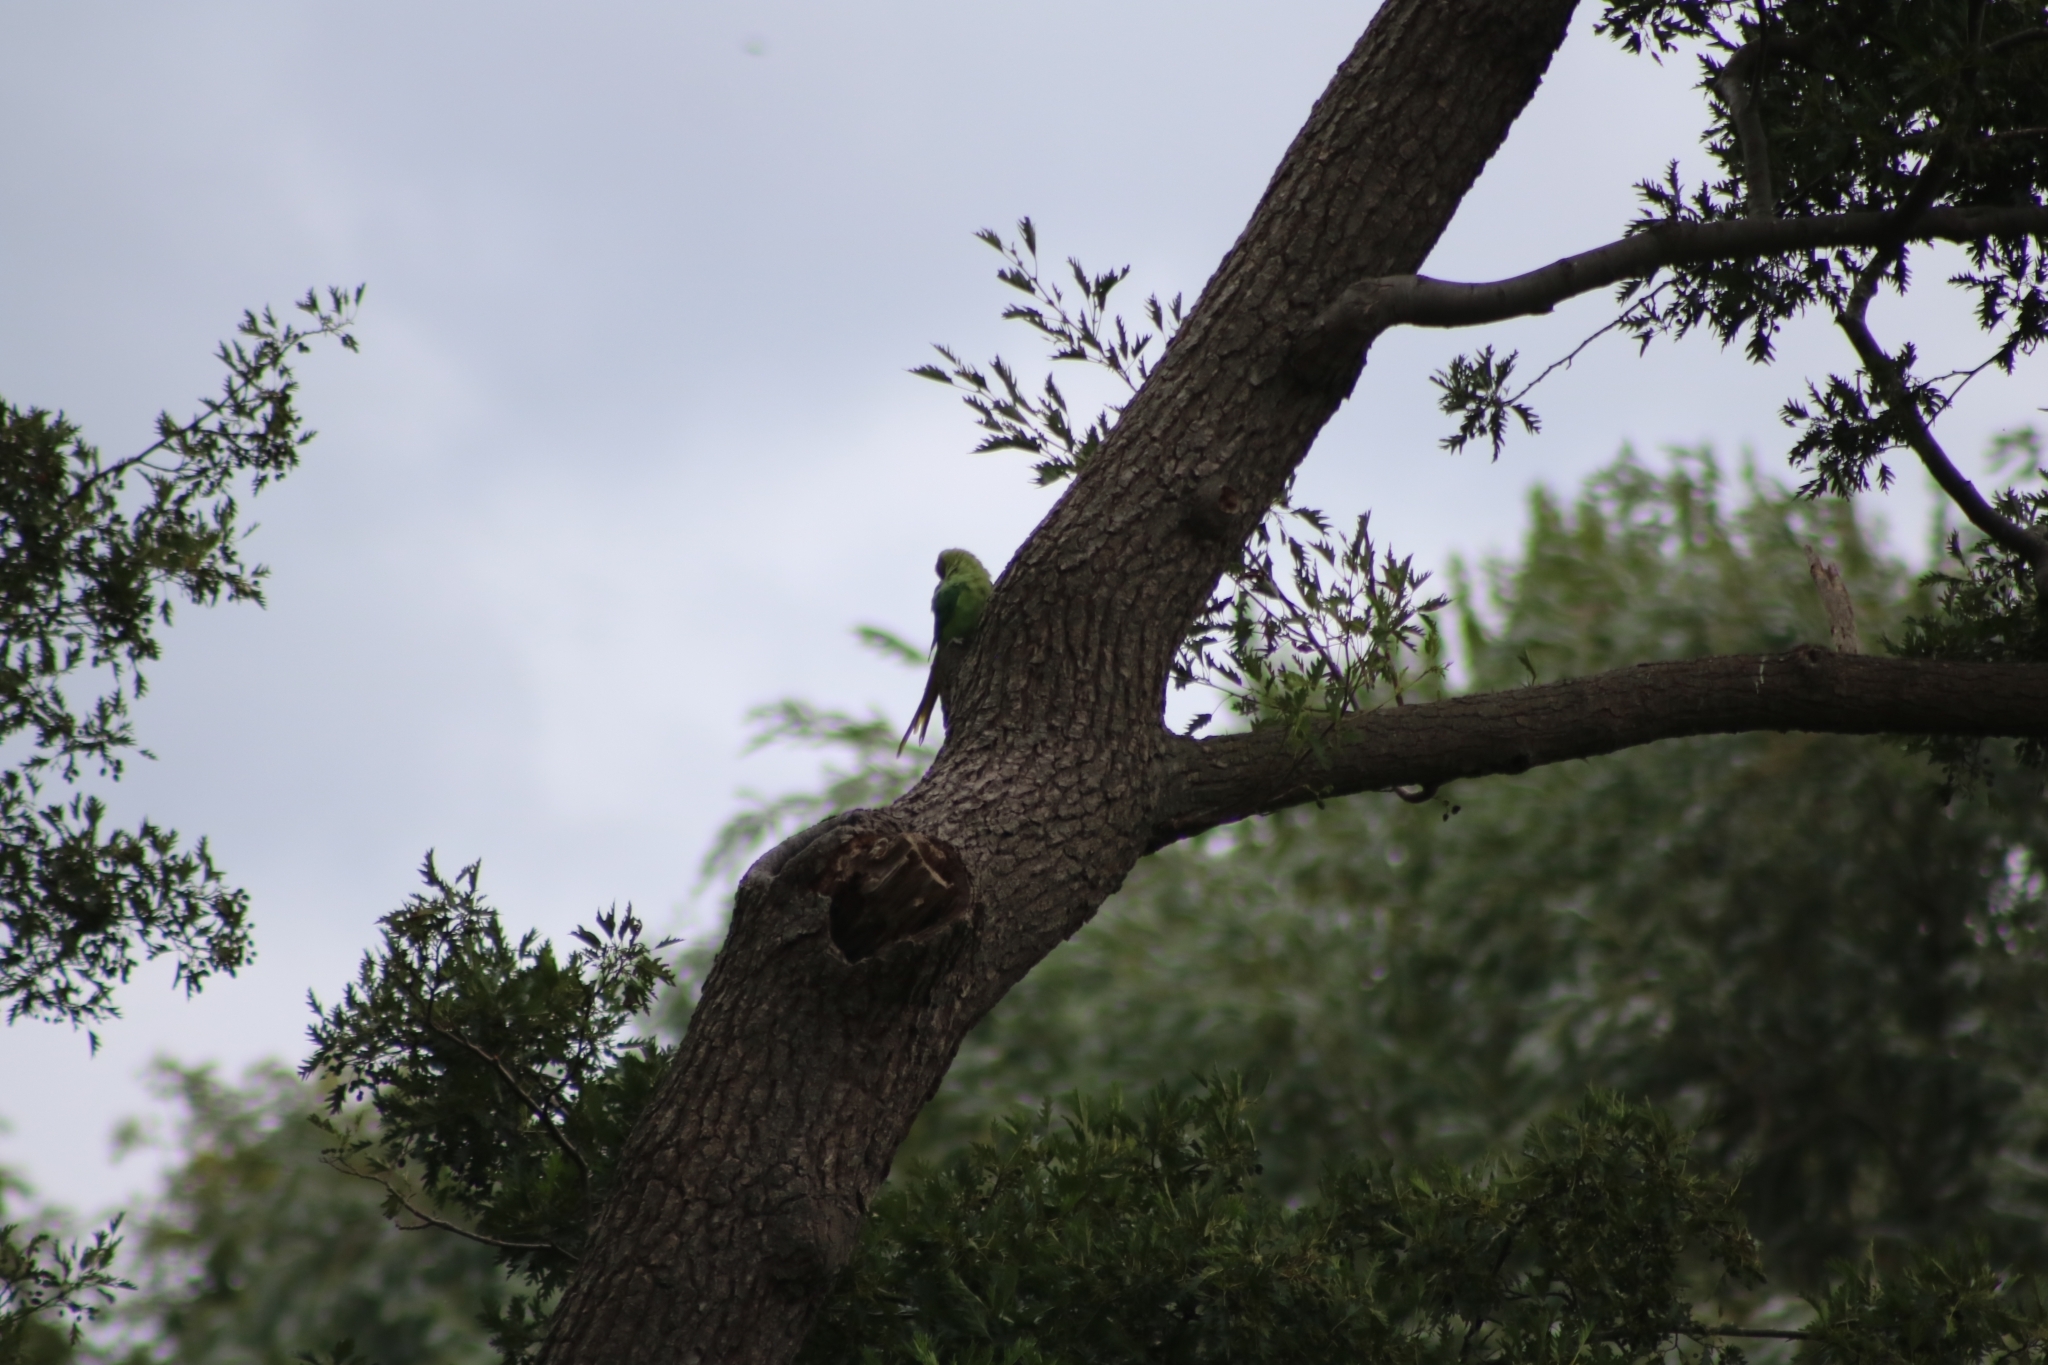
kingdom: Animalia
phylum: Chordata
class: Aves
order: Psittaciformes
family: Psittacidae
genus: Psittacula
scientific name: Psittacula krameri
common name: Rose-ringed parakeet
